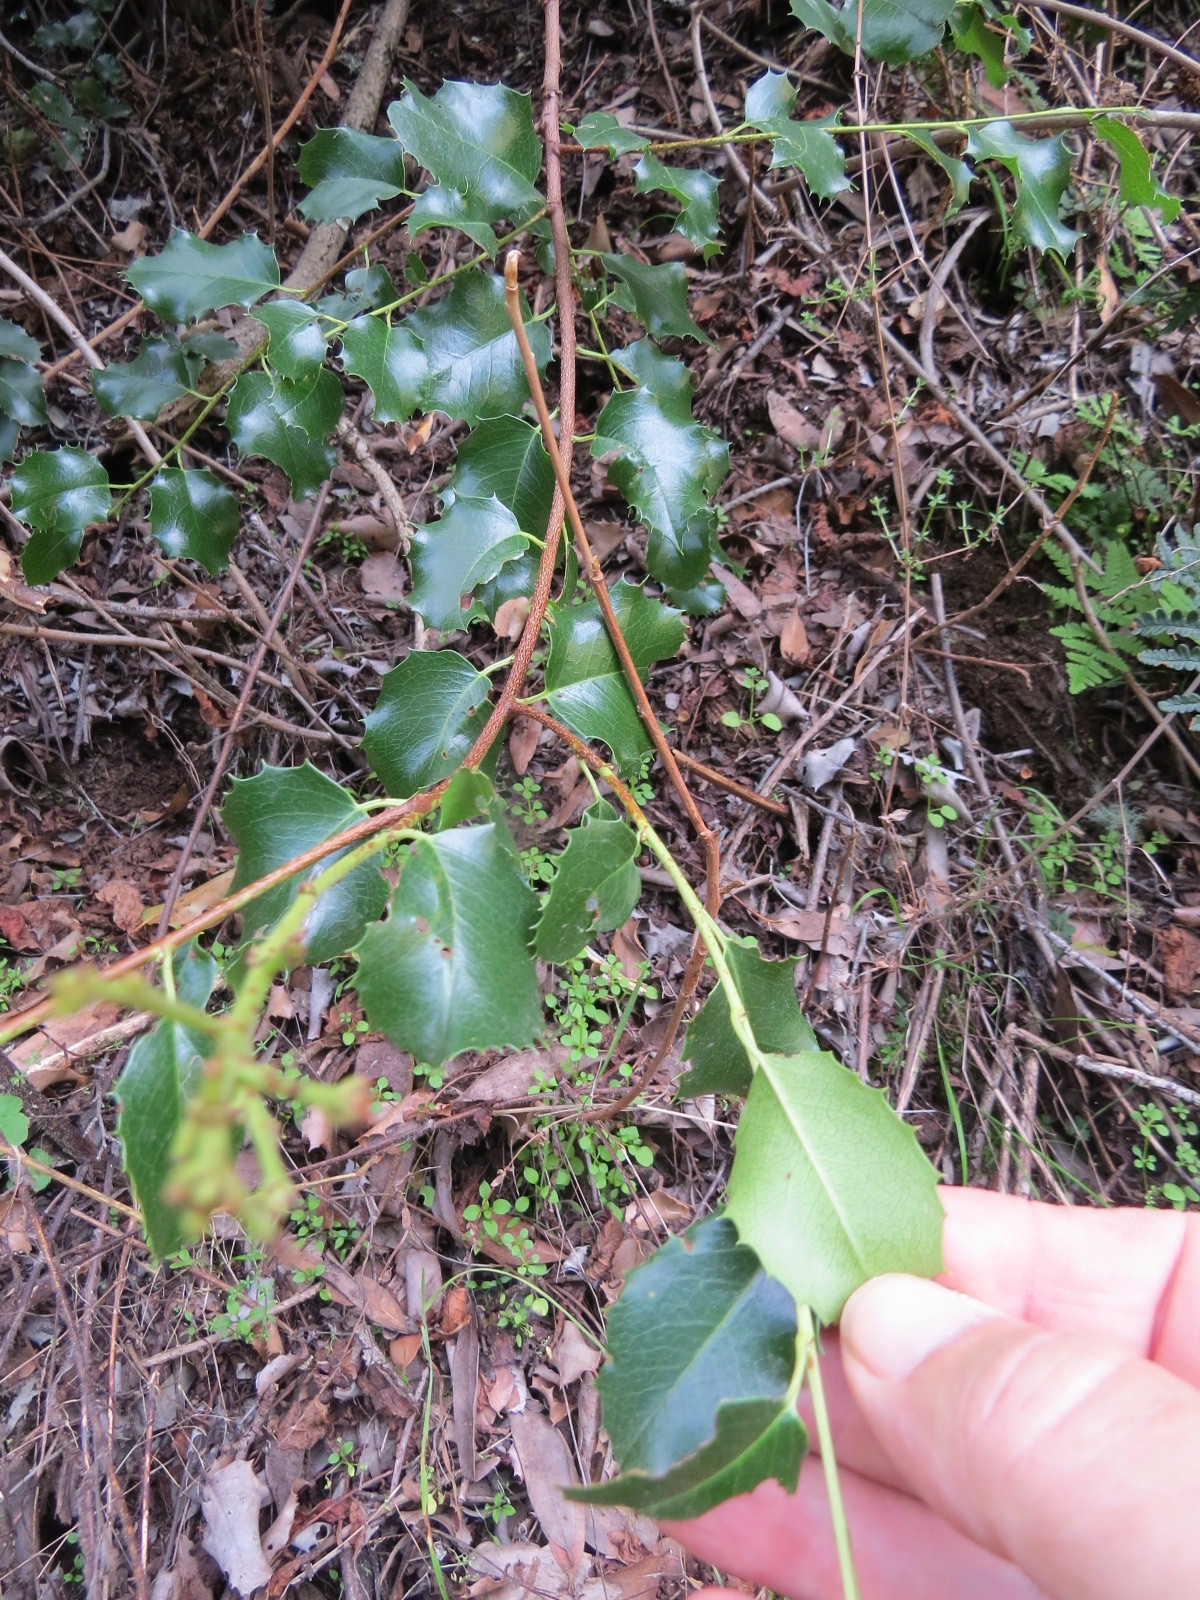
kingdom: Plantae
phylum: Tracheophyta
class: Magnoliopsida
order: Rosales
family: Rosaceae
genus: Prunus
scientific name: Prunus ilicifolia
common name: Hollyleaf cherry
